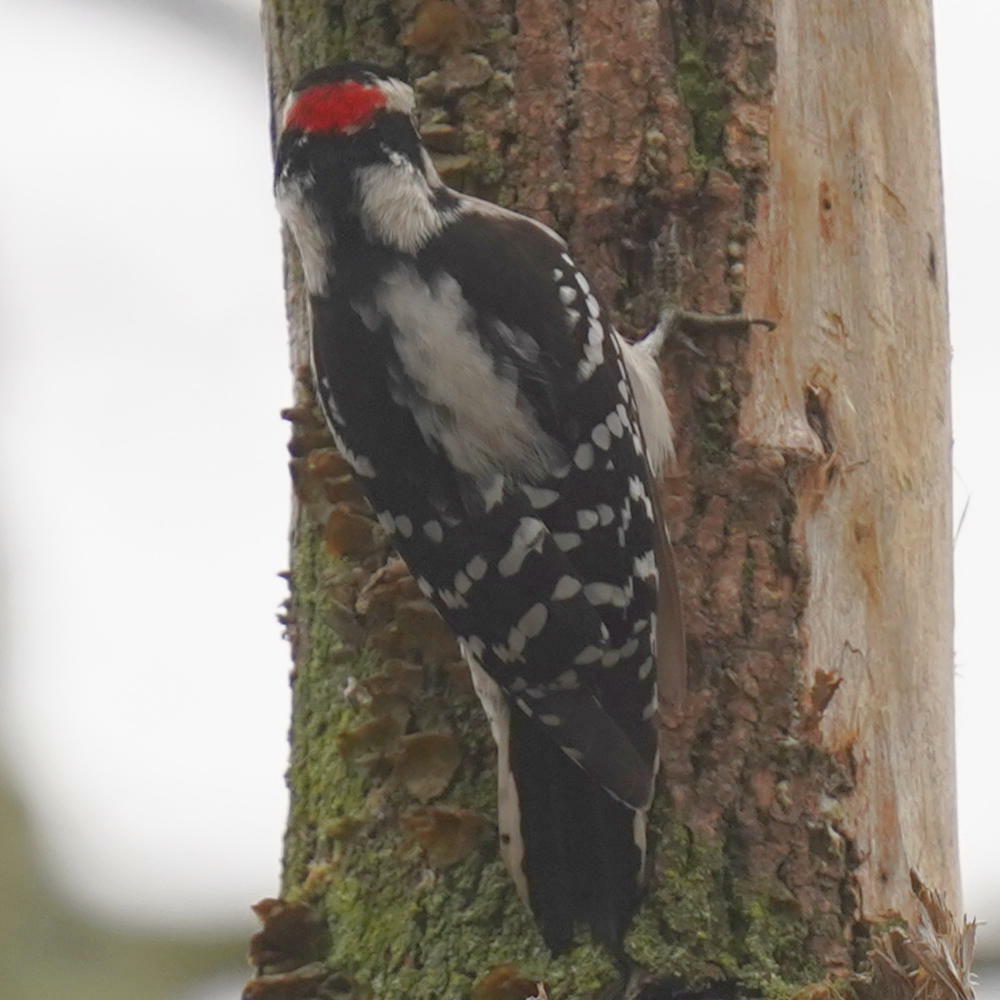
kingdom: Animalia
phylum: Chordata
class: Aves
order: Piciformes
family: Picidae
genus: Dryobates
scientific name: Dryobates pubescens
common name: Downy woodpecker
